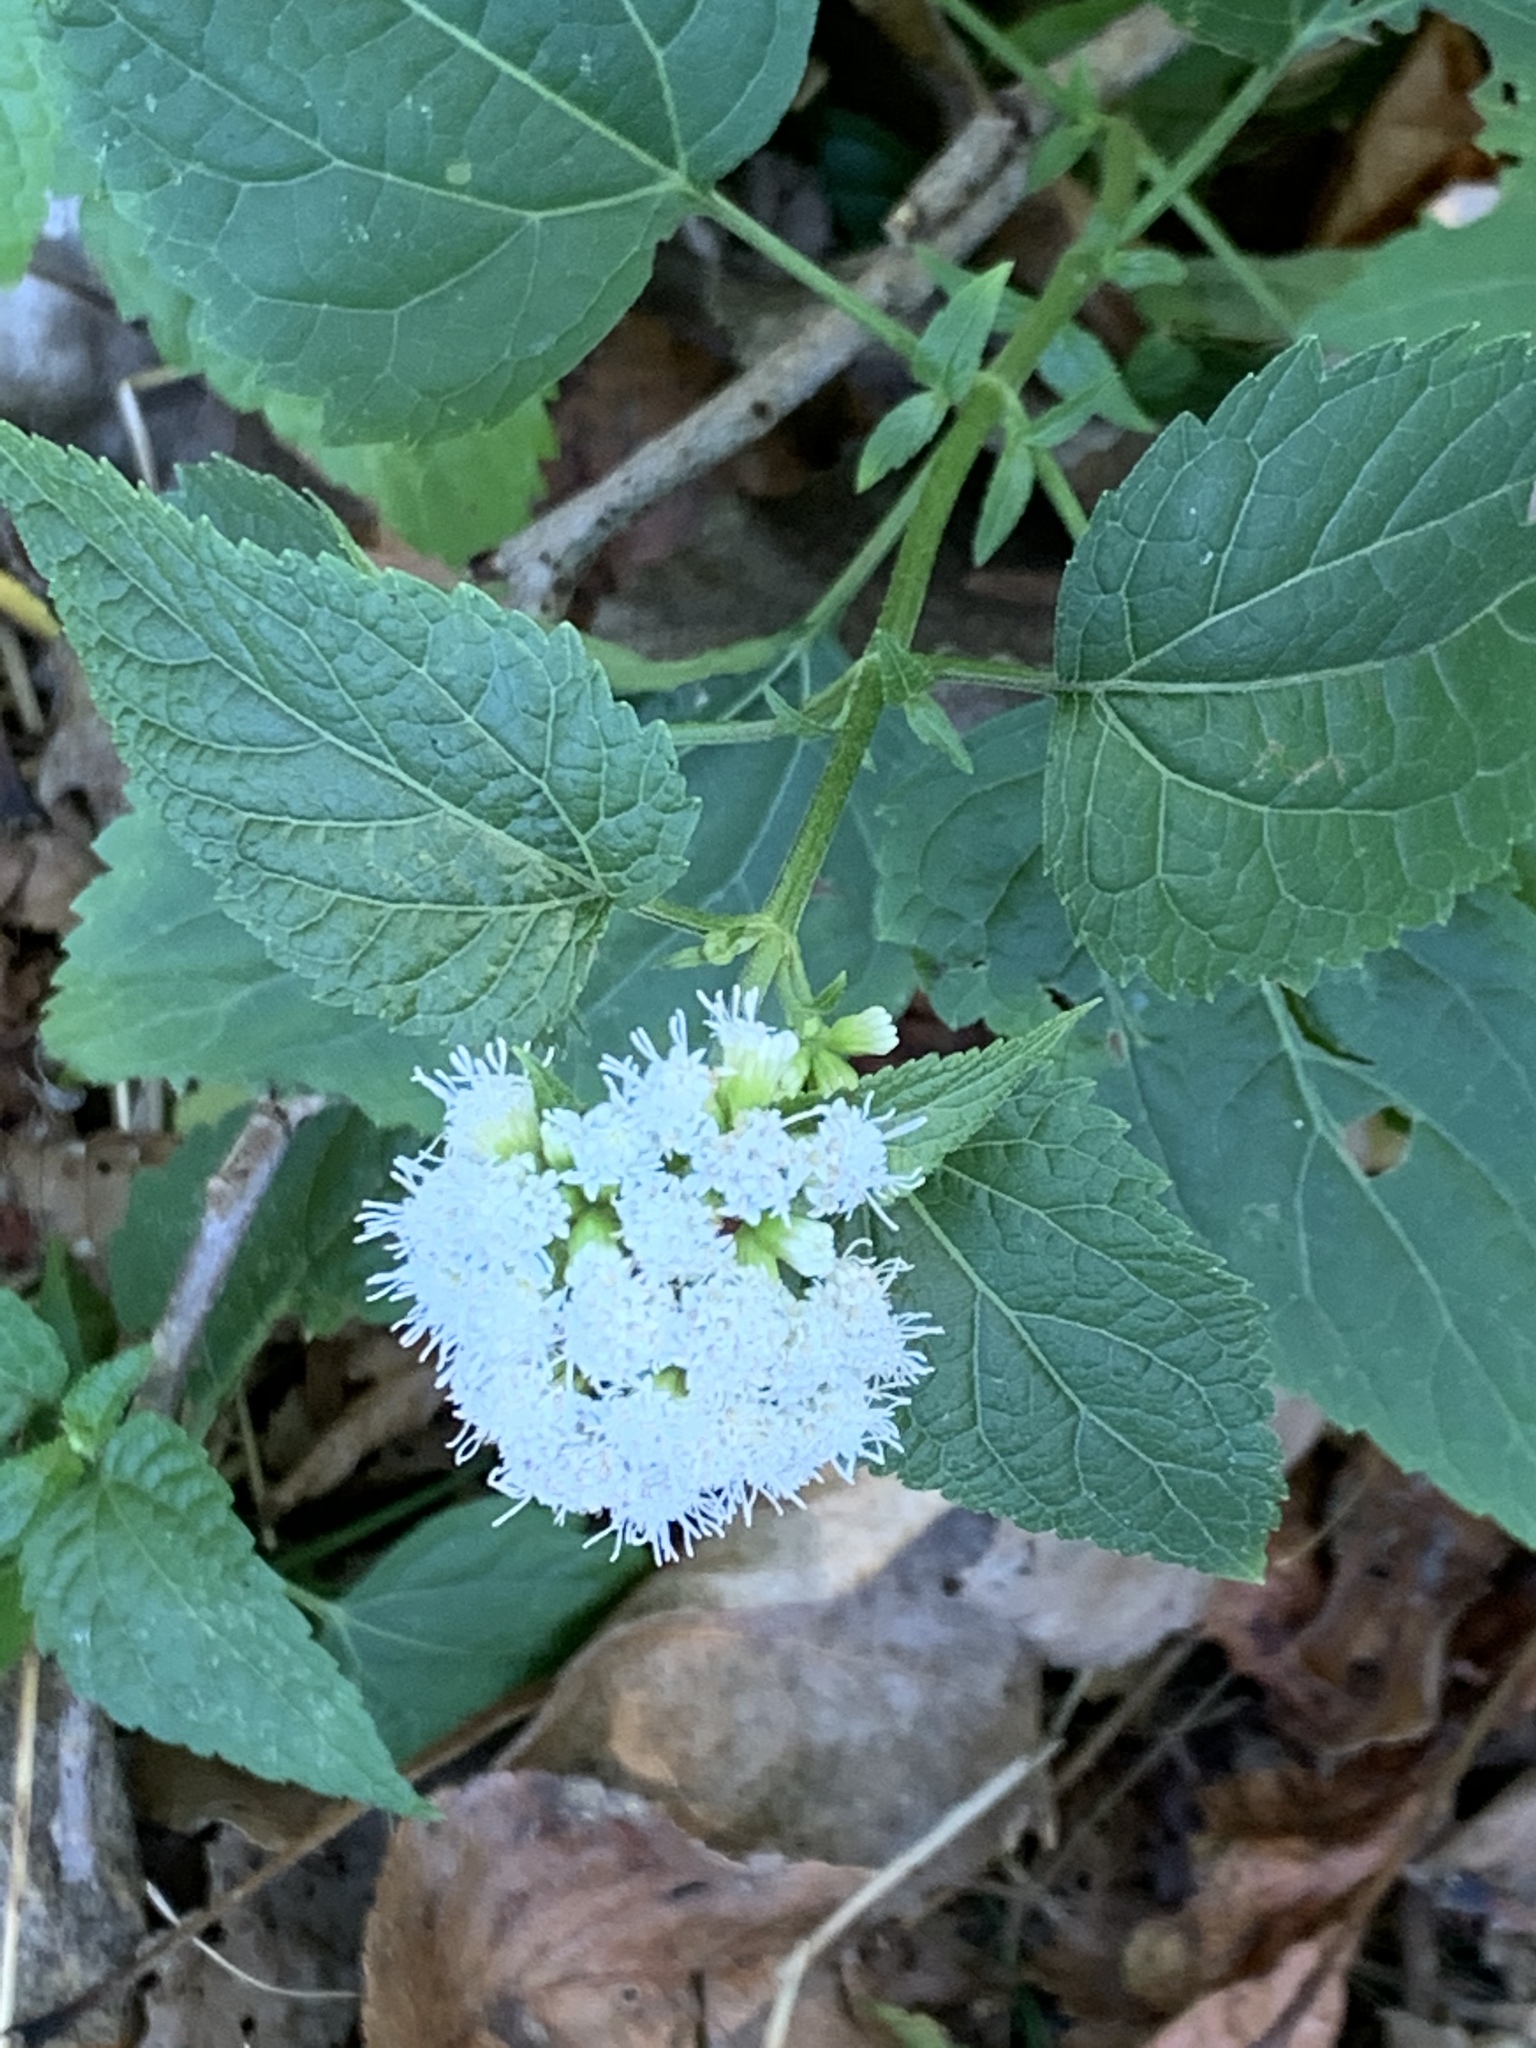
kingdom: Plantae
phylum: Tracheophyta
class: Magnoliopsida
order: Asterales
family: Asteraceae
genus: Ageratina
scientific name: Ageratina altissima
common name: White snakeroot
